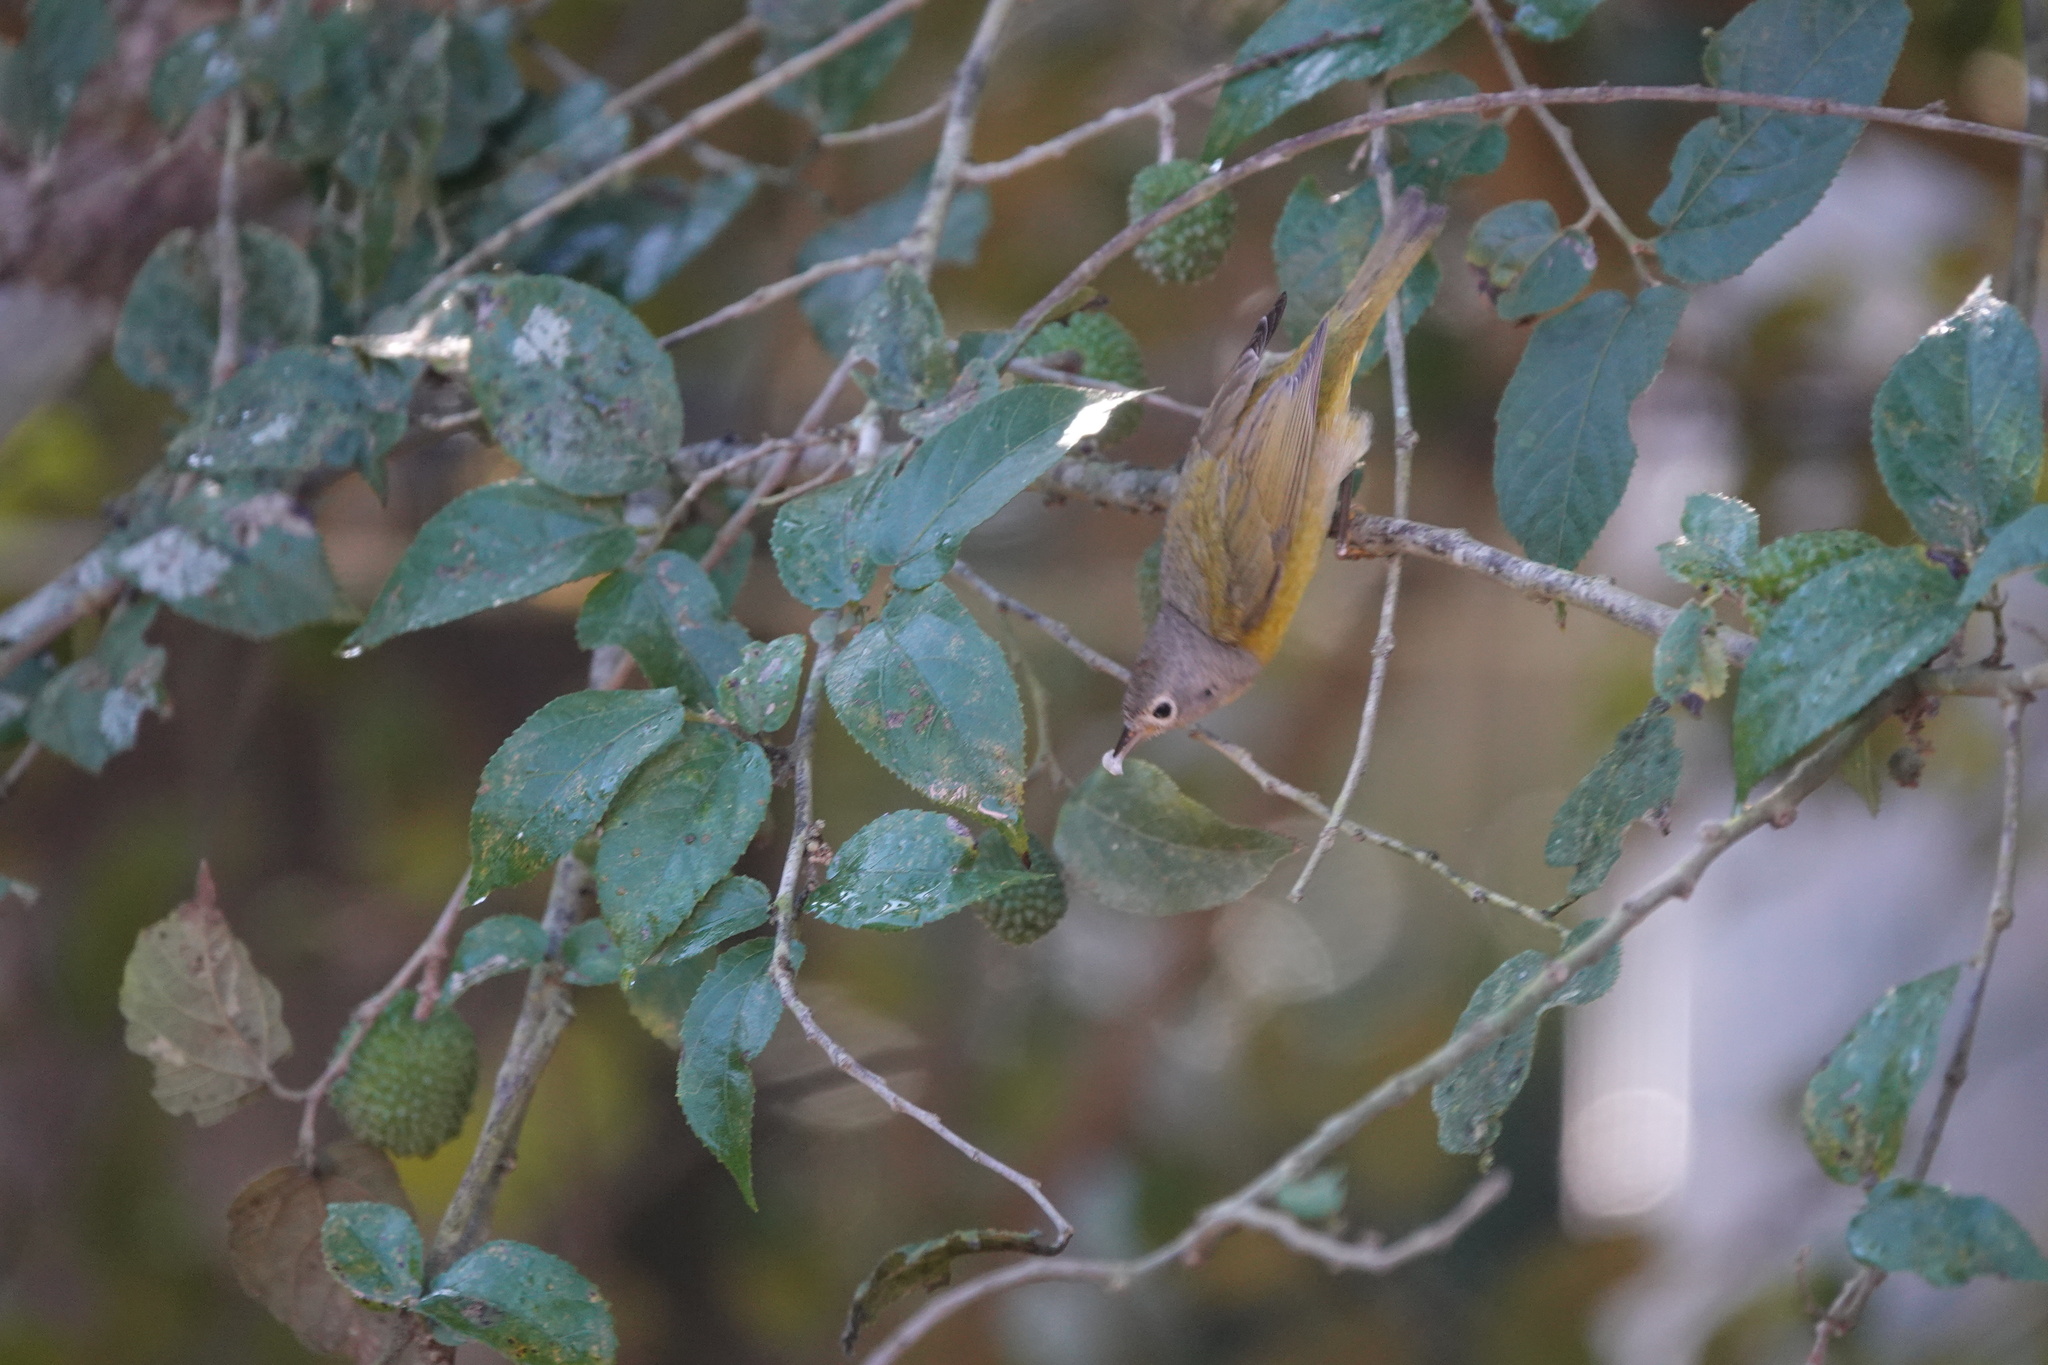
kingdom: Animalia
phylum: Chordata
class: Aves
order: Passeriformes
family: Parulidae
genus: Leiothlypis
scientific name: Leiothlypis ruficapilla
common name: Nashville warbler
